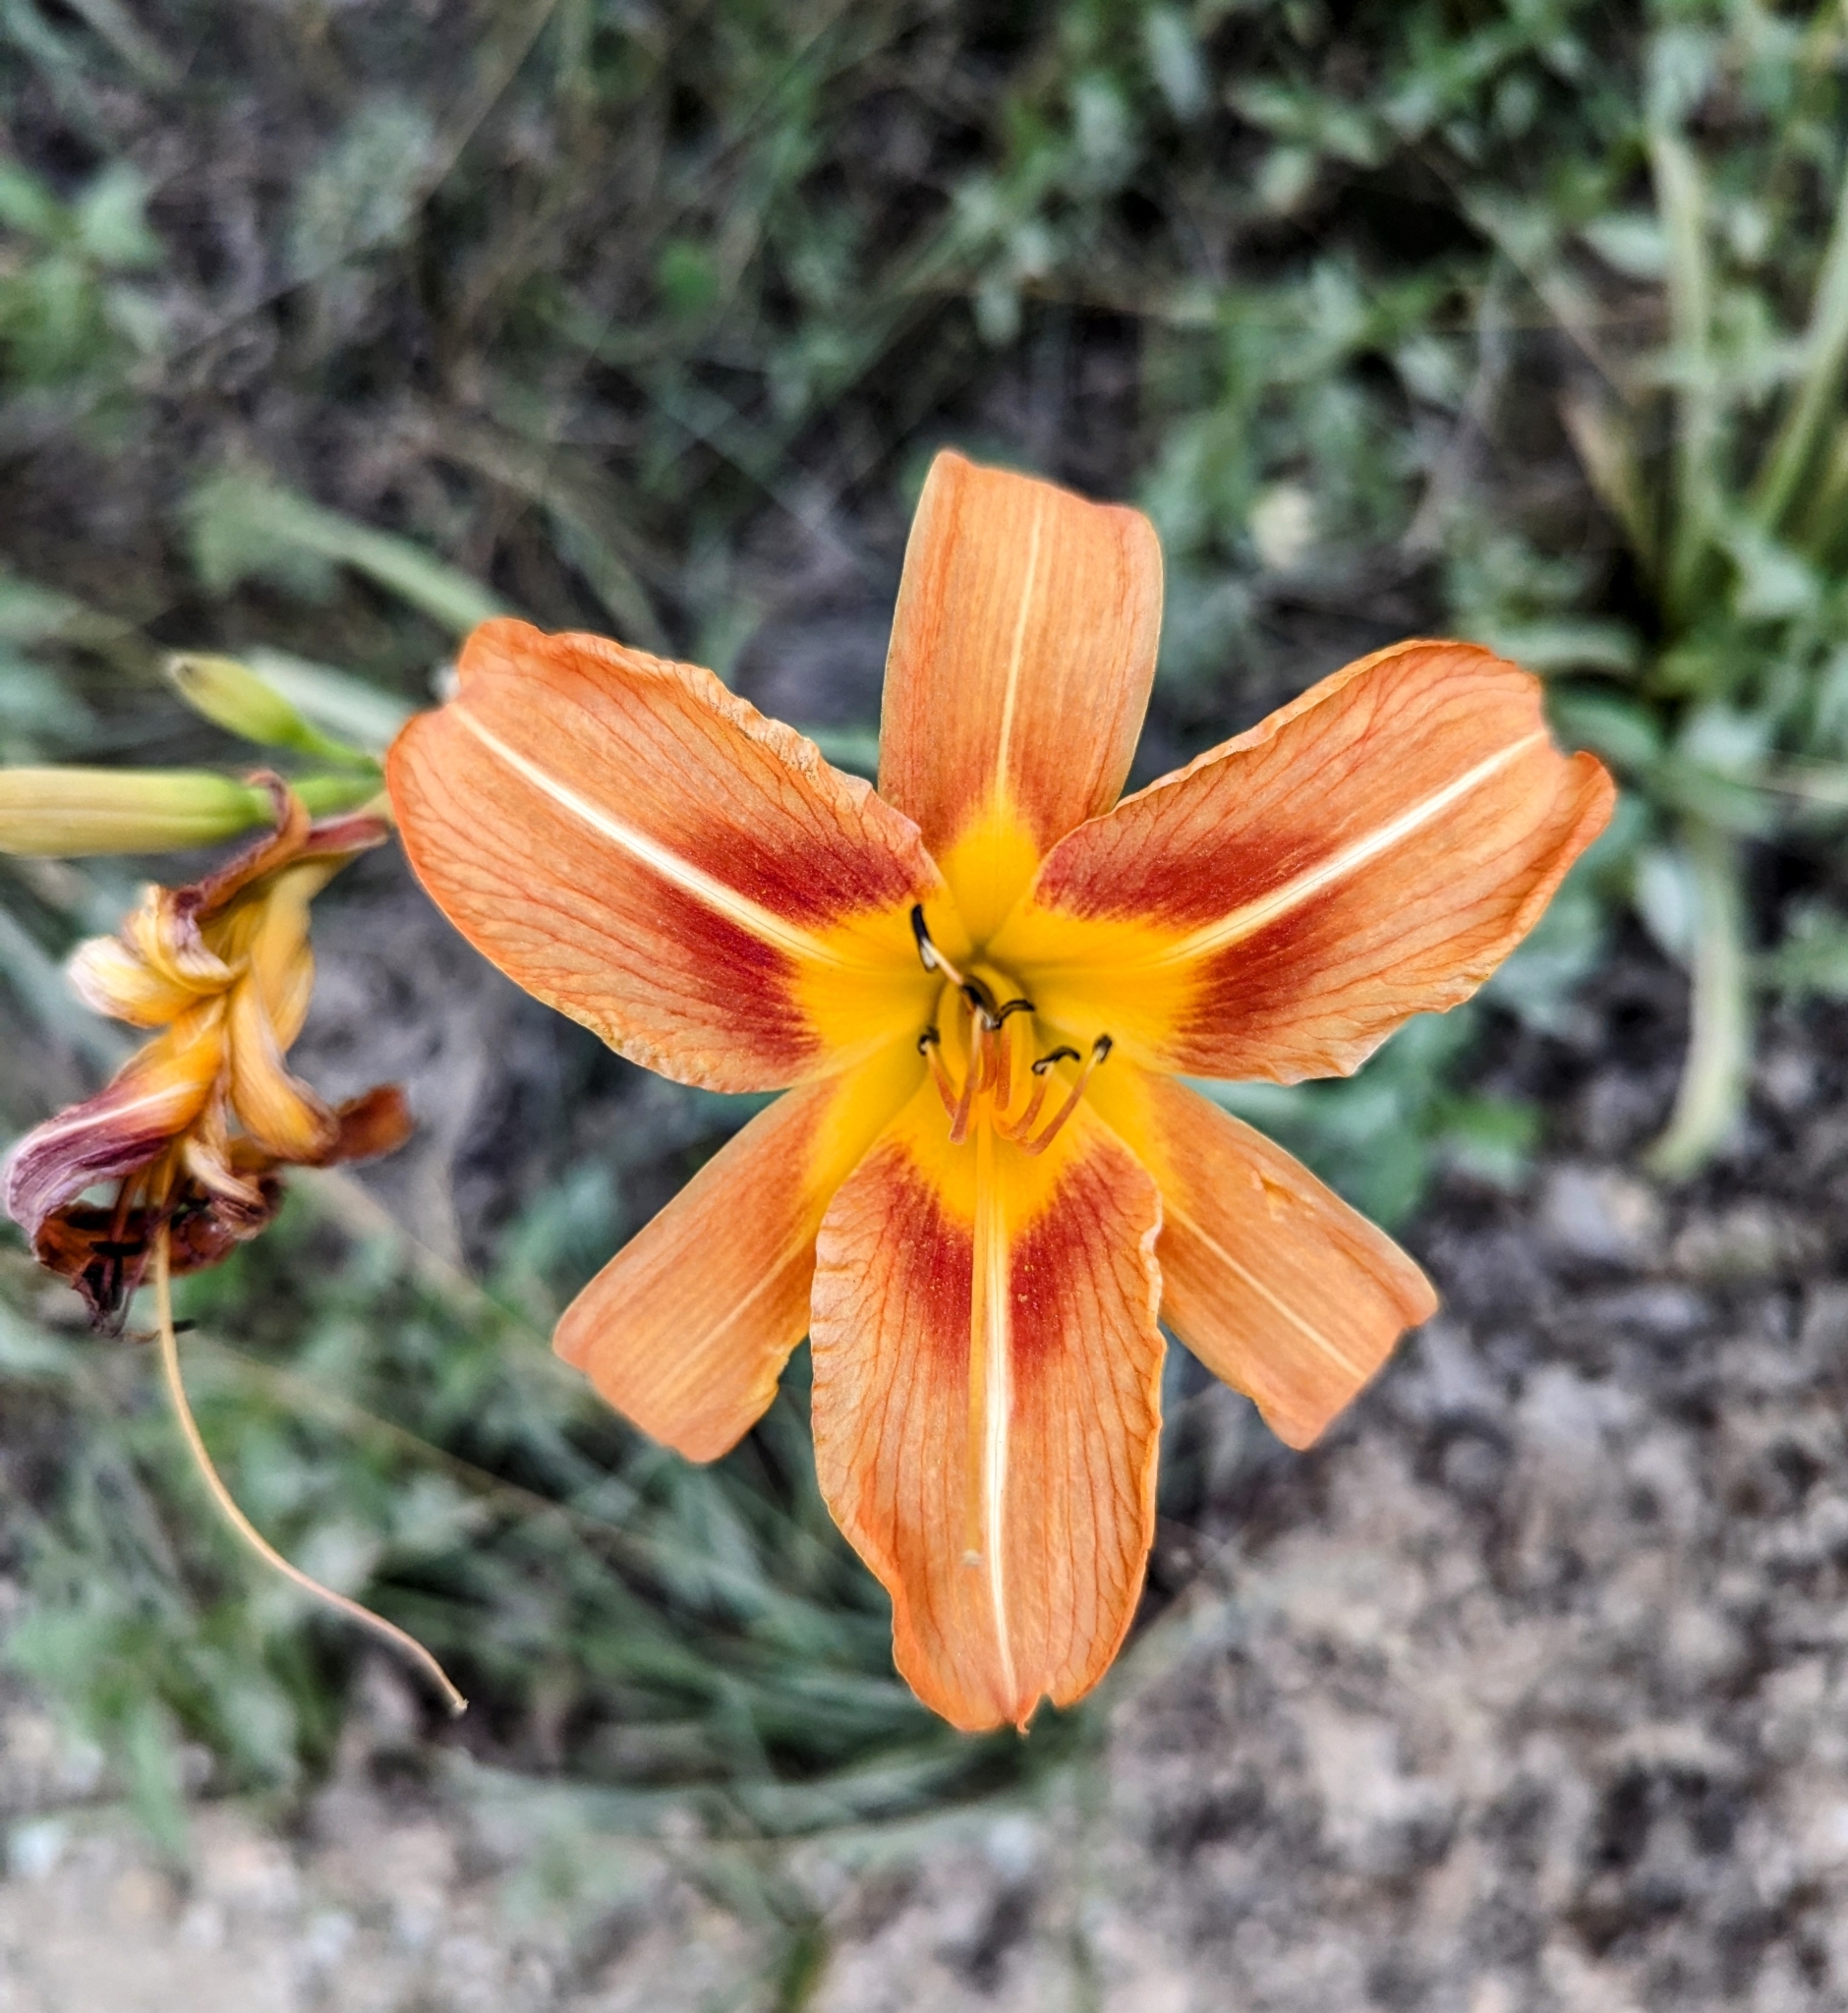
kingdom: Plantae
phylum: Tracheophyta
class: Liliopsida
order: Asparagales
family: Asphodelaceae
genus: Hemerocallis
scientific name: Hemerocallis fulva
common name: Orange day-lily
